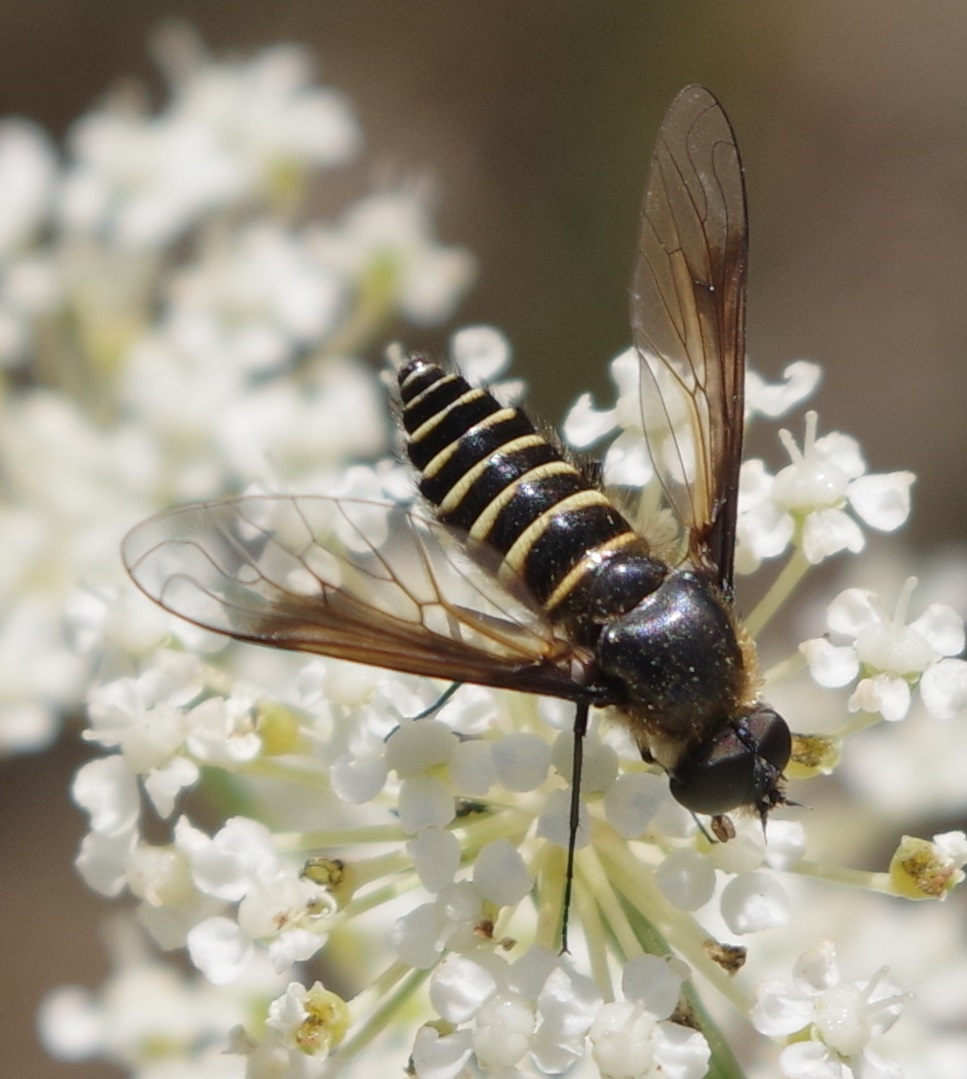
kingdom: Animalia
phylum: Arthropoda
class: Insecta
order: Diptera
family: Bombyliidae
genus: Lomatia
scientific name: Lomatia lateralis
